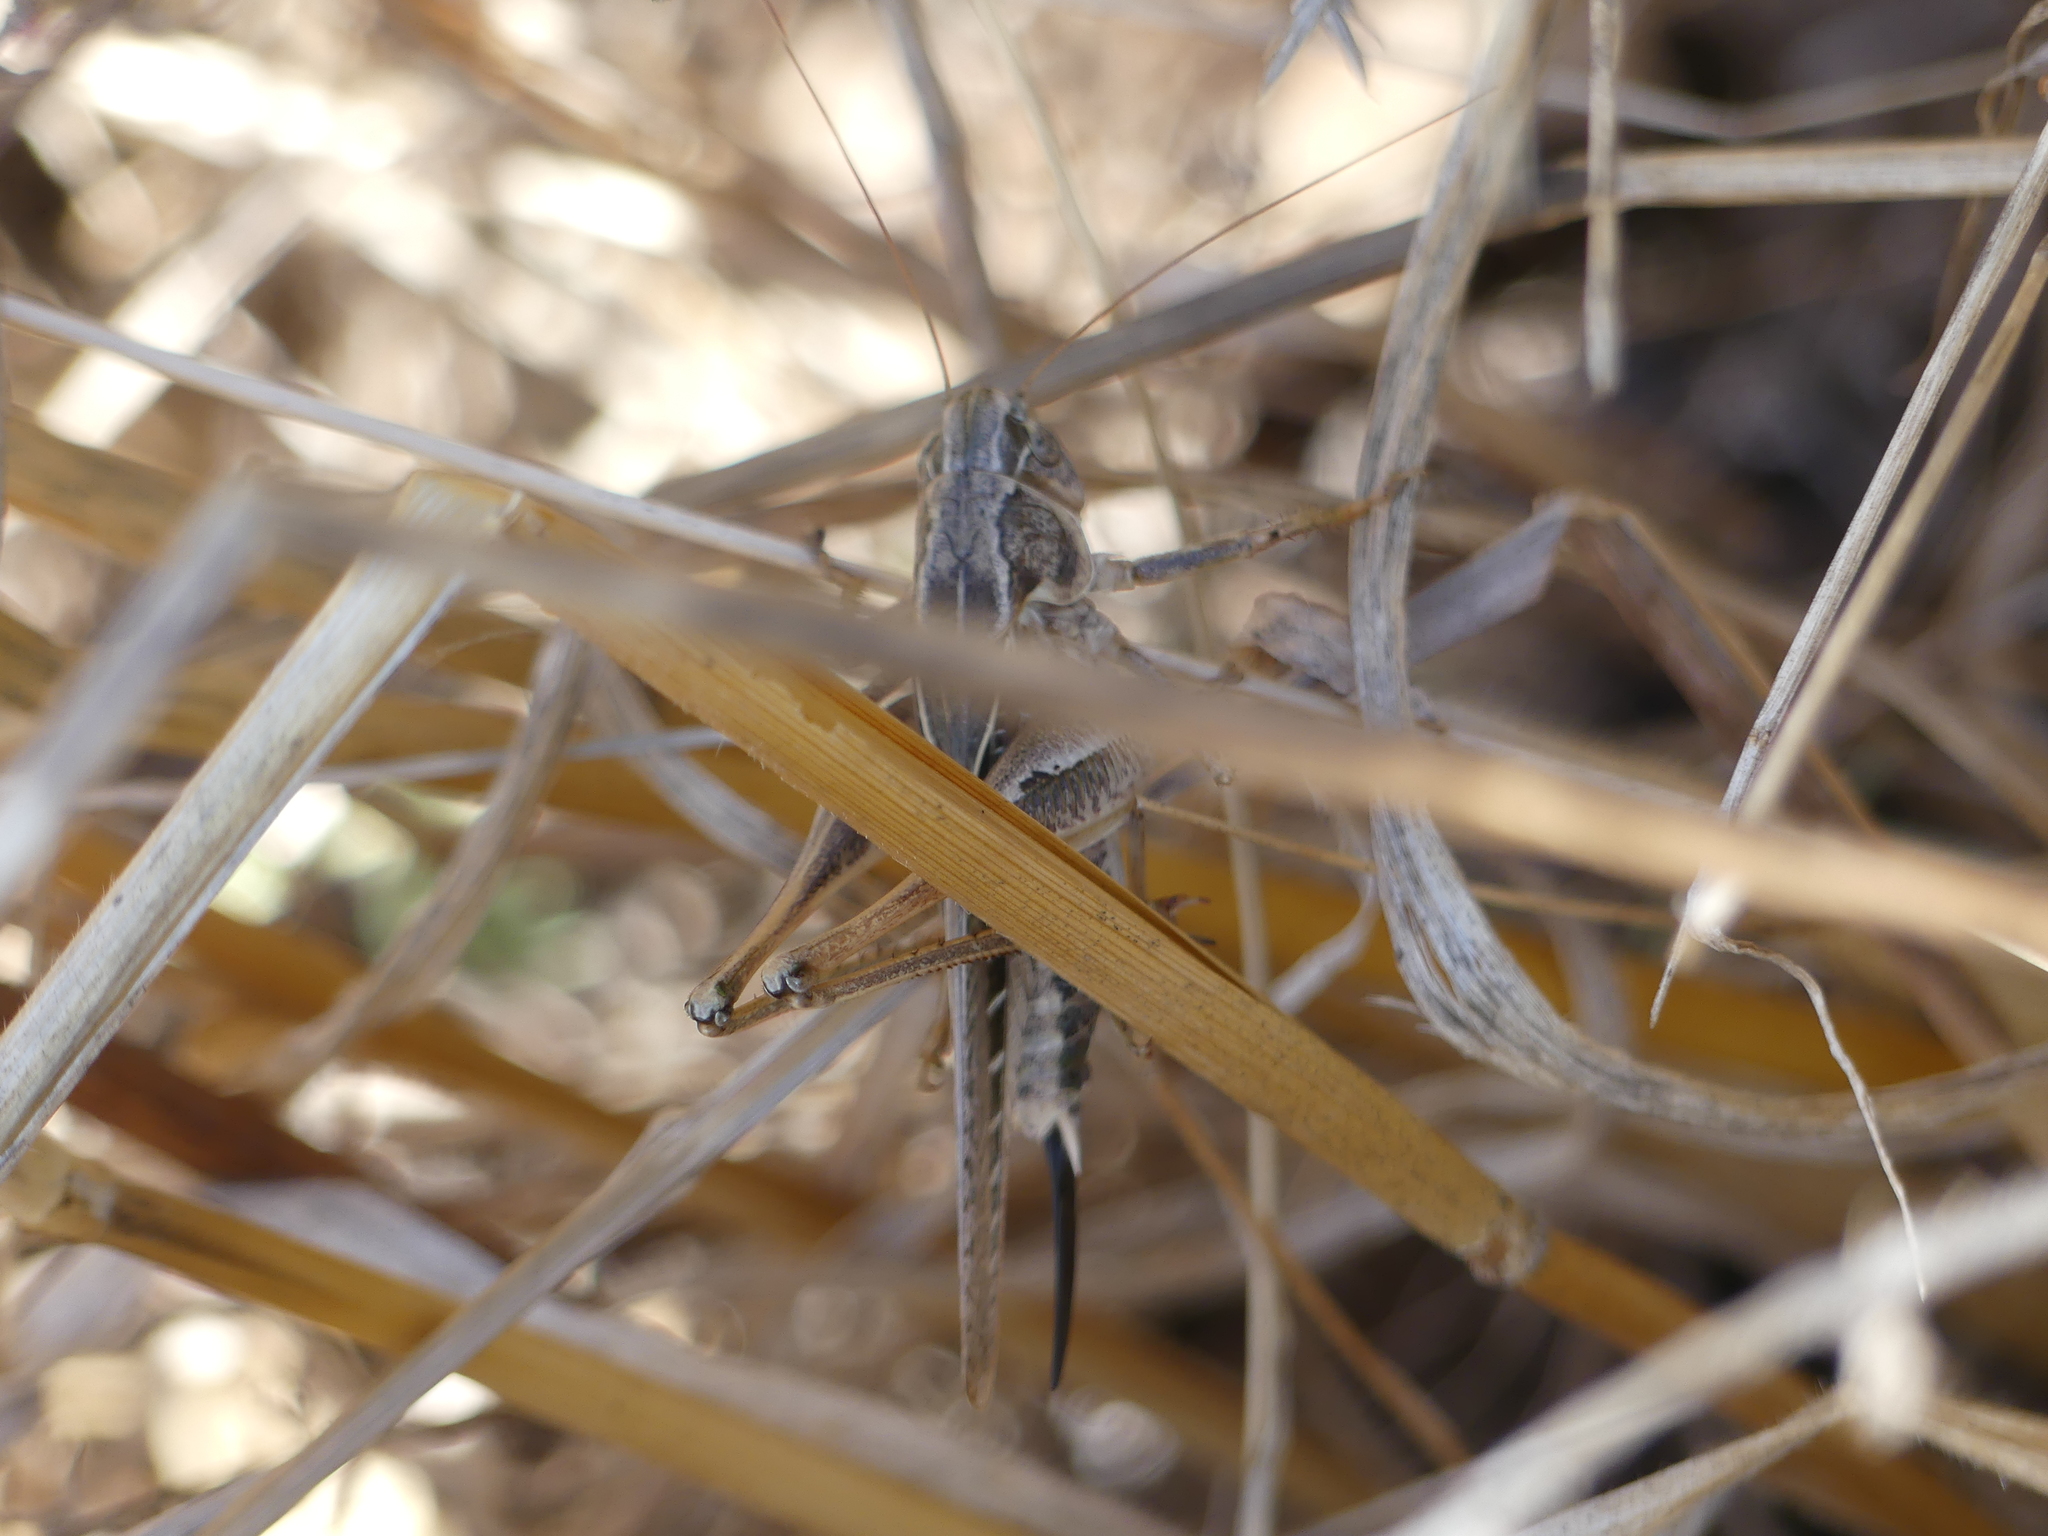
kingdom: Animalia
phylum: Arthropoda
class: Insecta
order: Orthoptera
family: Tettigoniidae
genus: Platycleis
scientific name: Platycleis affinis
